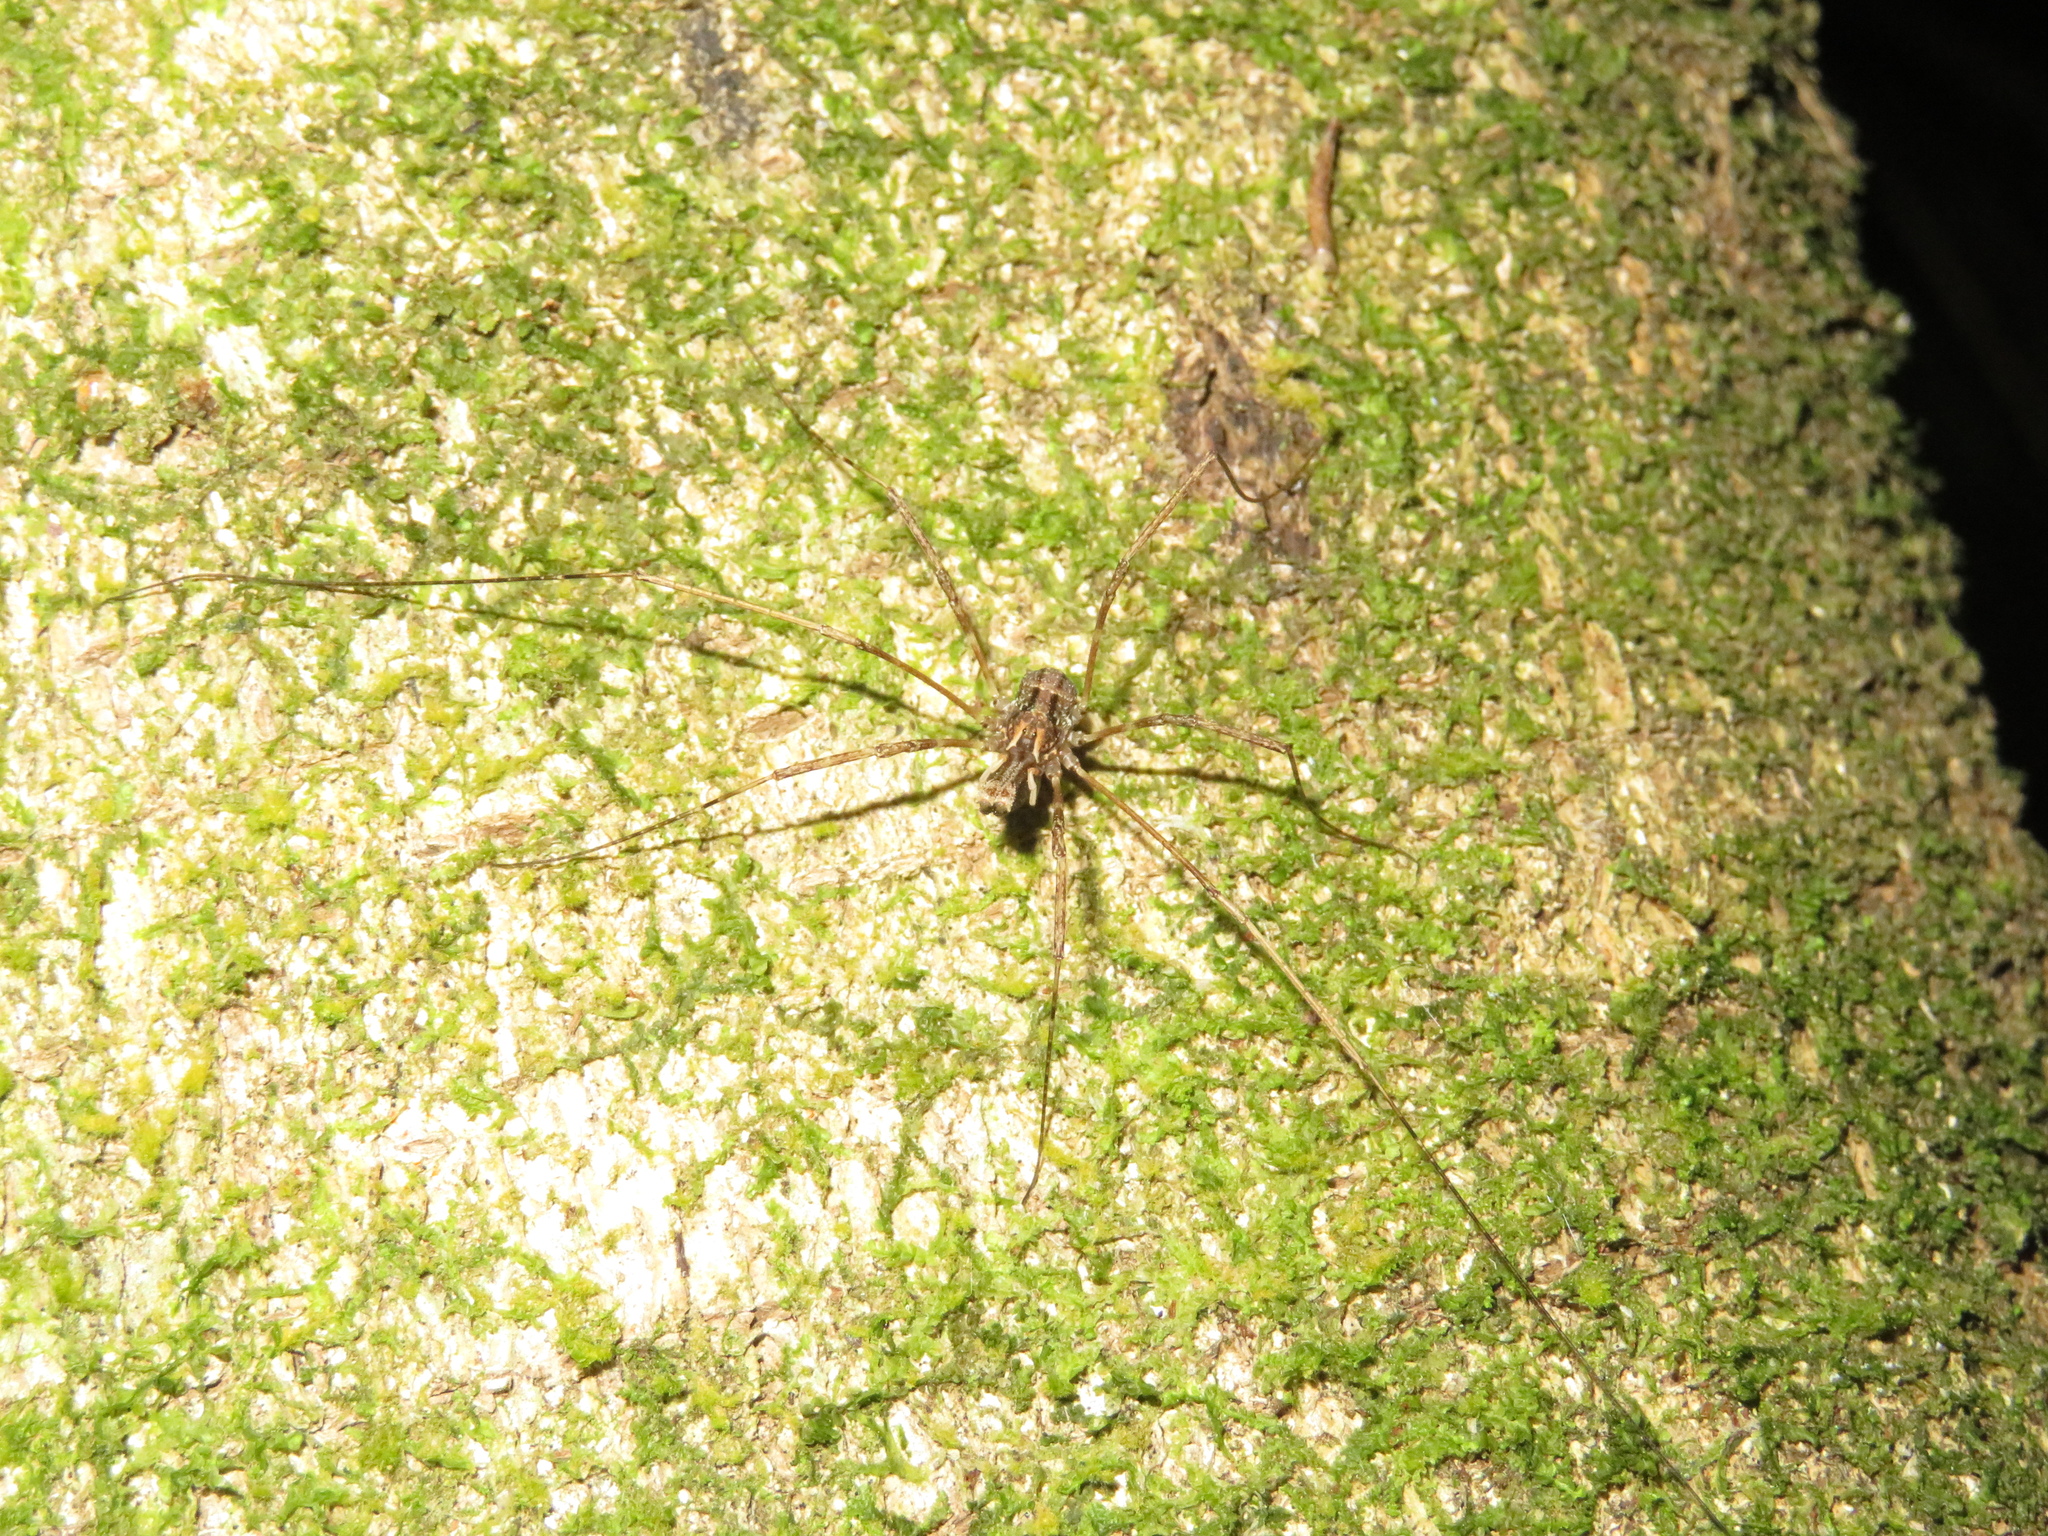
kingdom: Animalia
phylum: Arthropoda
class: Arachnida
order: Opiliones
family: Neopilionidae
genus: Forsteropsalis
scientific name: Forsteropsalis inconstans
